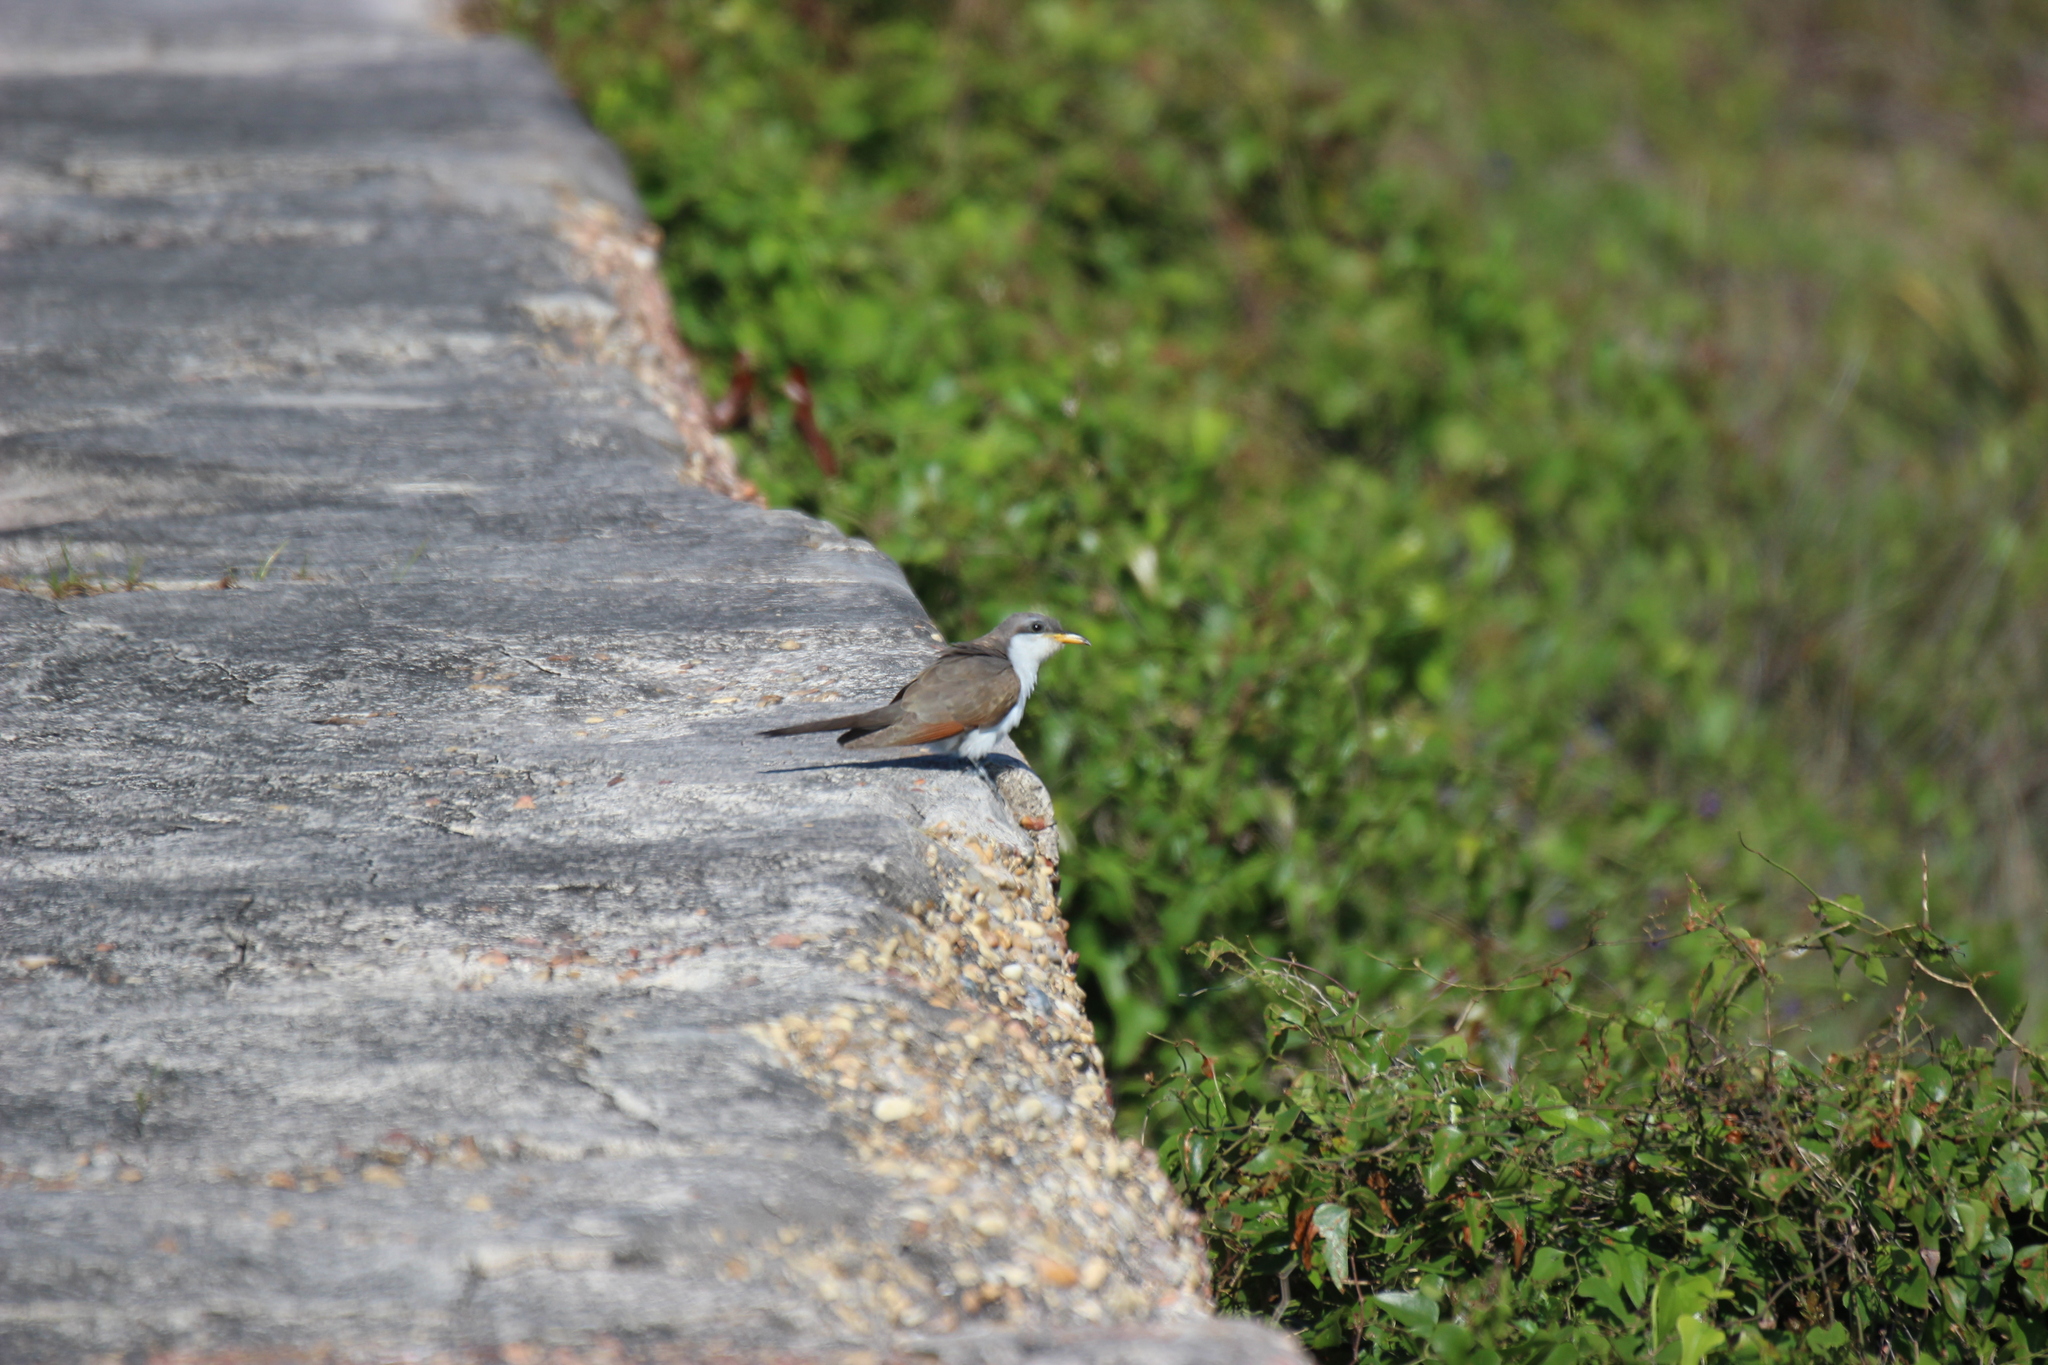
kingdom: Animalia
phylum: Chordata
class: Aves
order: Cuculiformes
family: Cuculidae
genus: Coccyzus
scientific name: Coccyzus americanus
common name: Yellow-billed cuckoo
